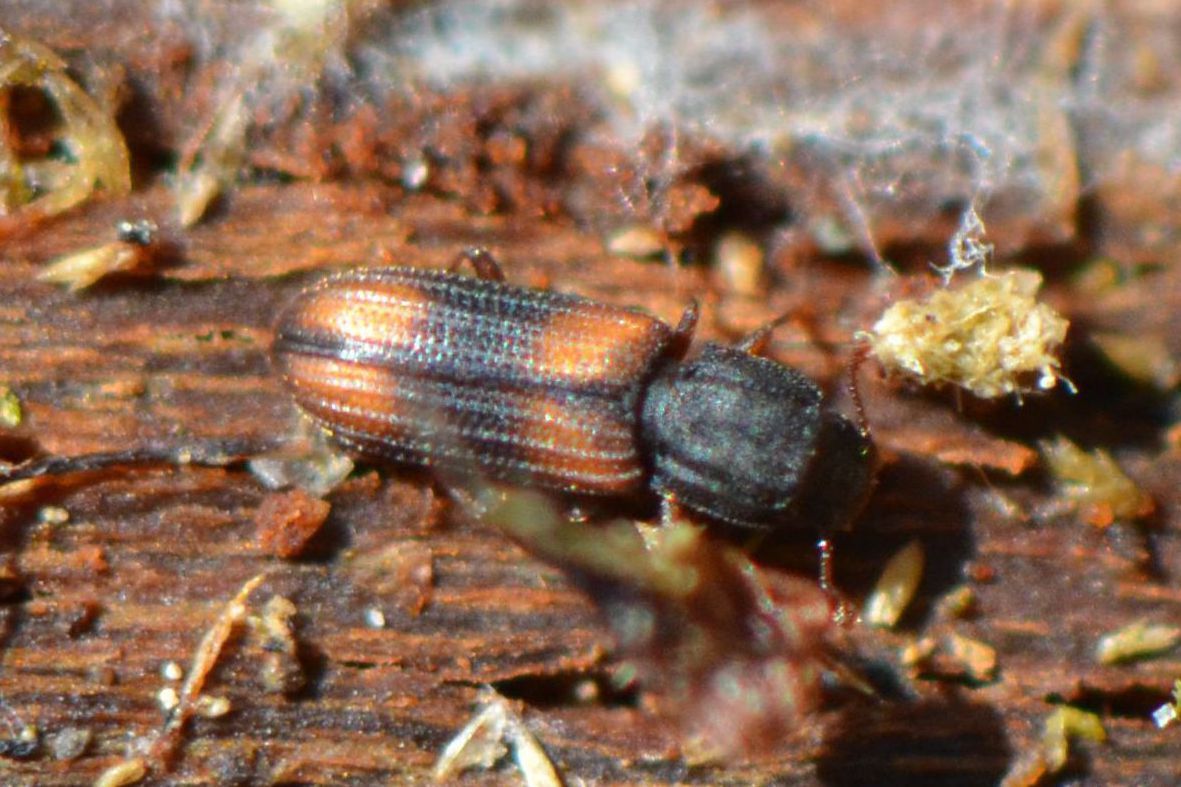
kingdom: Animalia
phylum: Arthropoda
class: Insecta
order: Coleoptera
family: Zopheridae
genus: Bitoma
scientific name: Bitoma crenata
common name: Bark beetle
